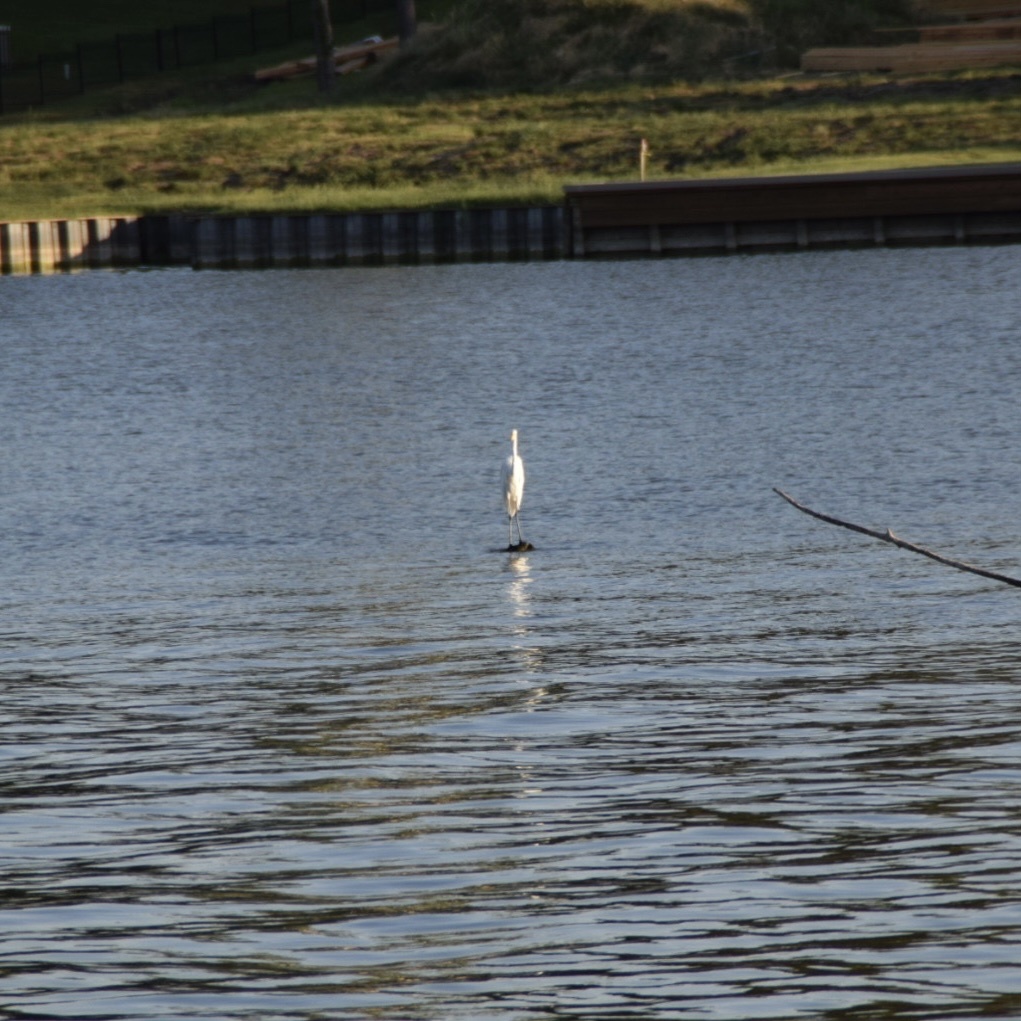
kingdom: Animalia
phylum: Chordata
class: Aves
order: Pelecaniformes
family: Ardeidae
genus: Ardea
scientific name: Ardea alba
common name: Great egret
